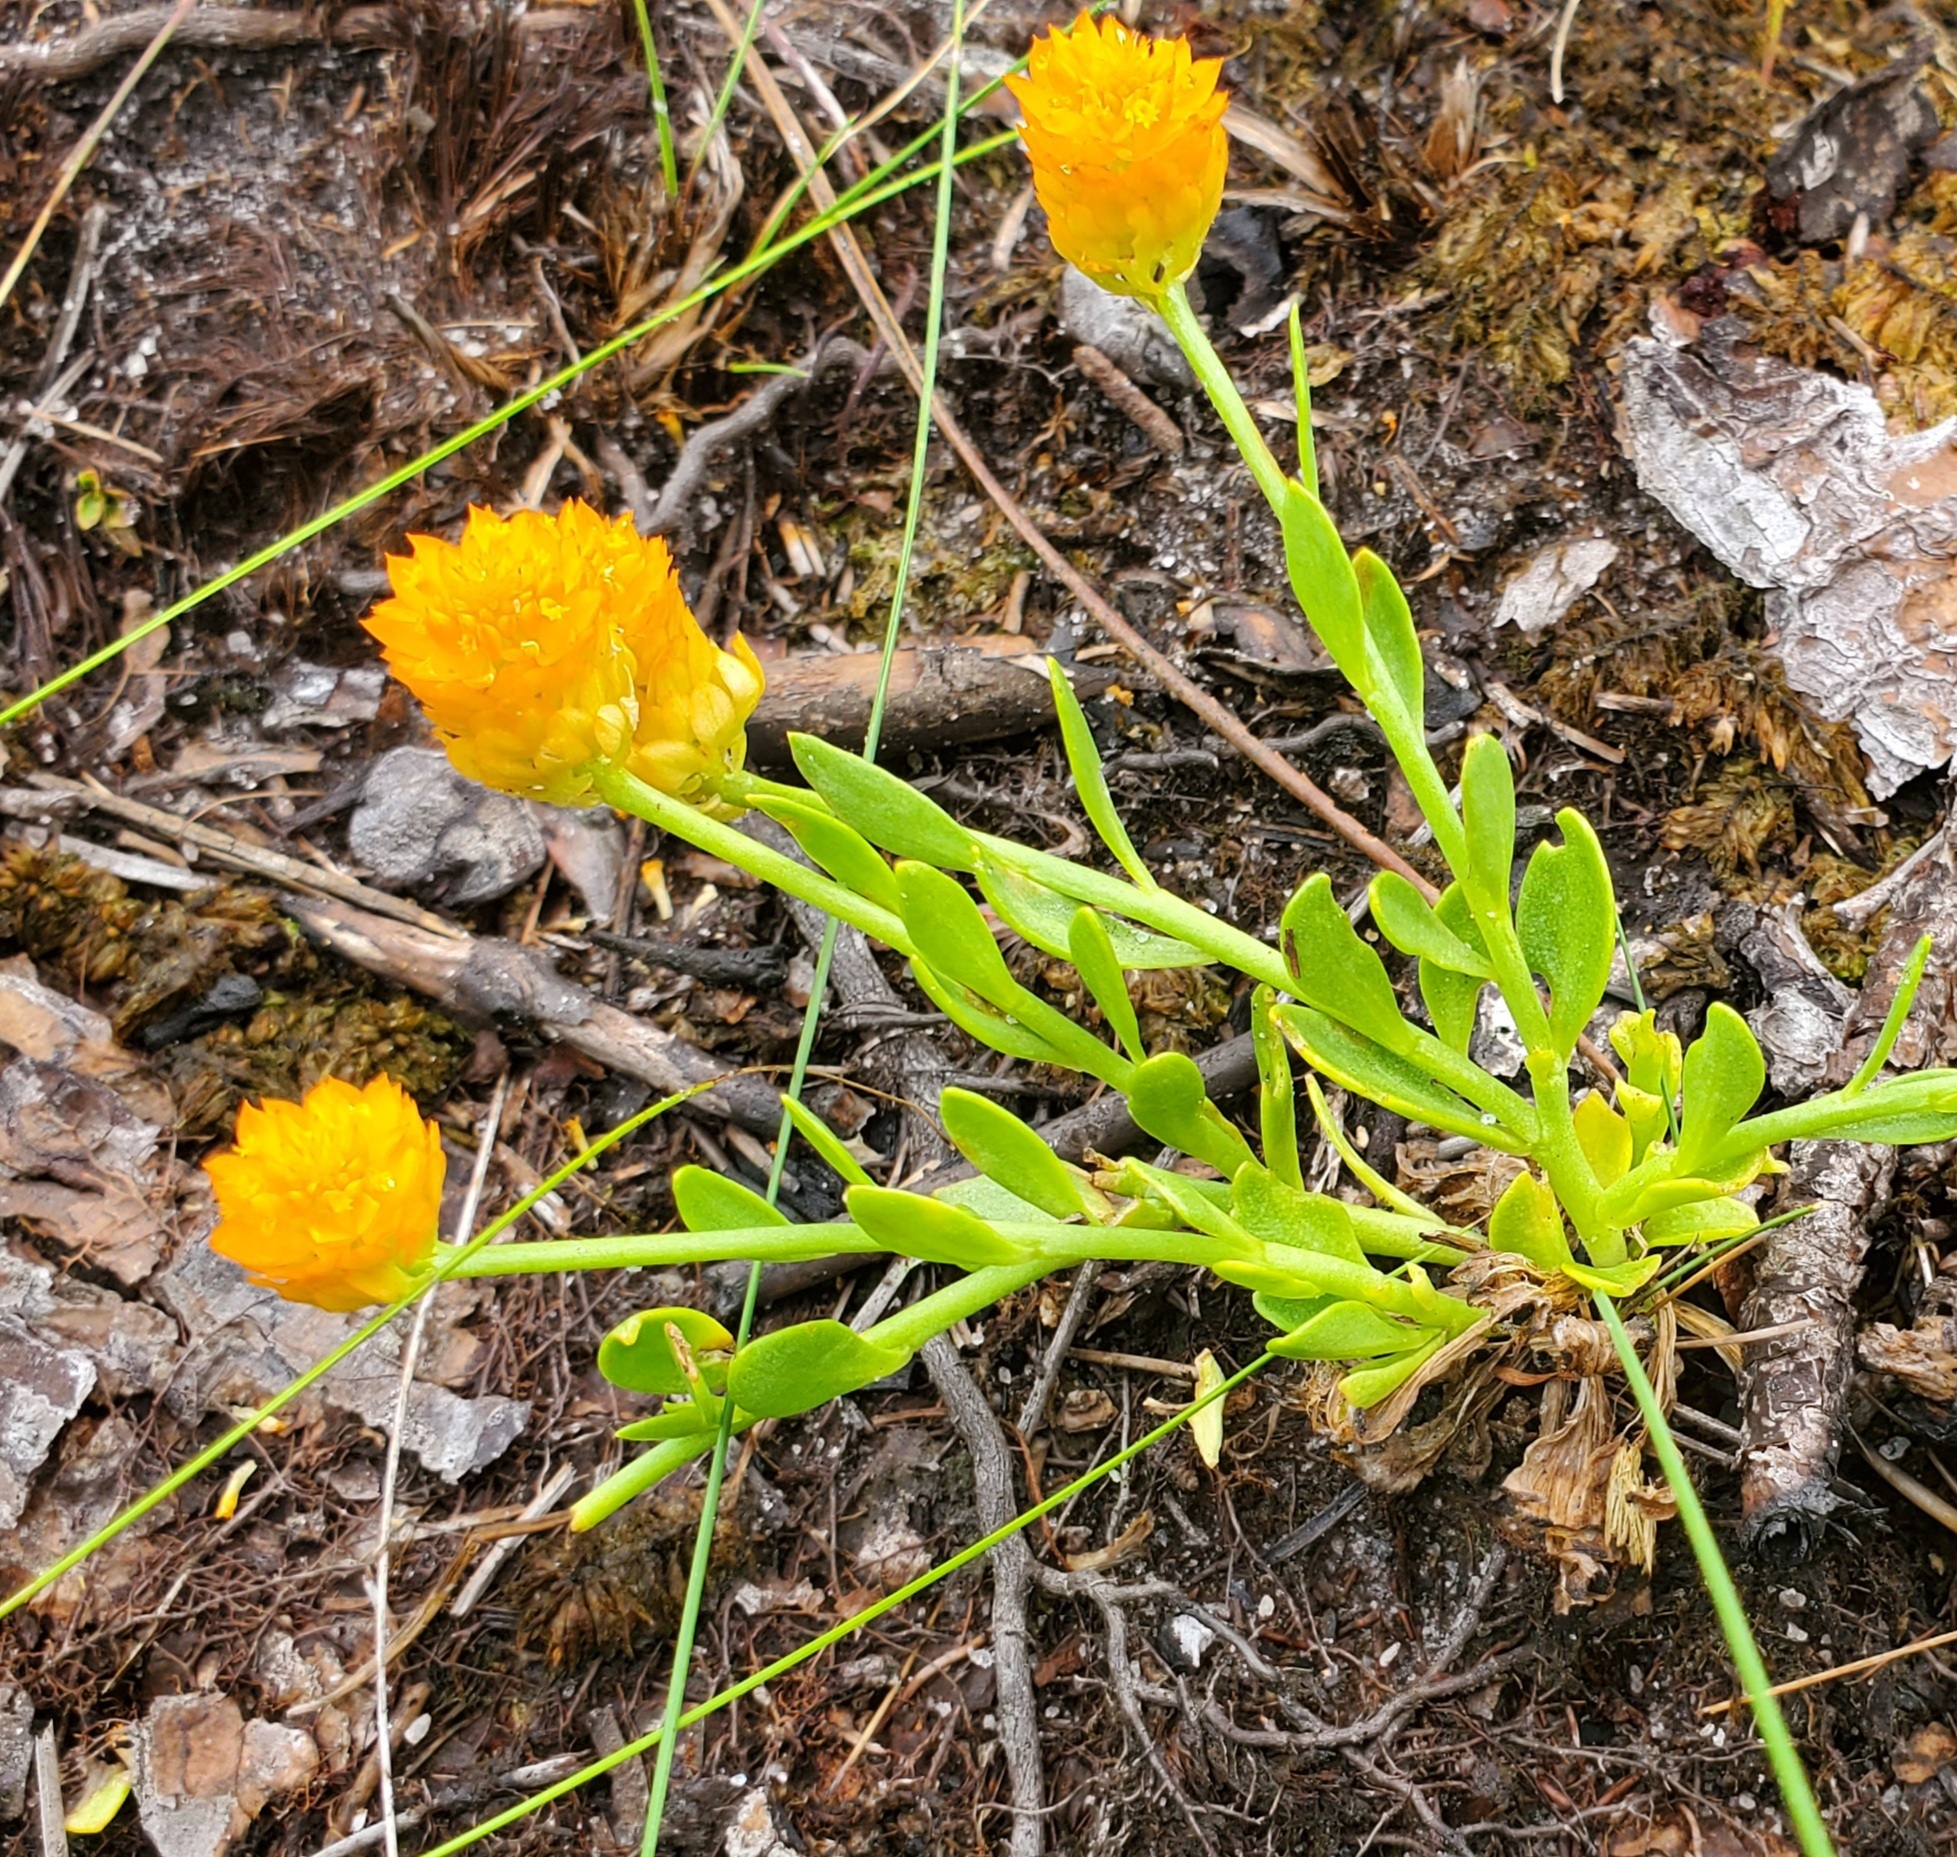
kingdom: Plantae
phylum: Tracheophyta
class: Magnoliopsida
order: Fabales
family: Polygalaceae
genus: Polygala
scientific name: Polygala lutea
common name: Orange milkwort
